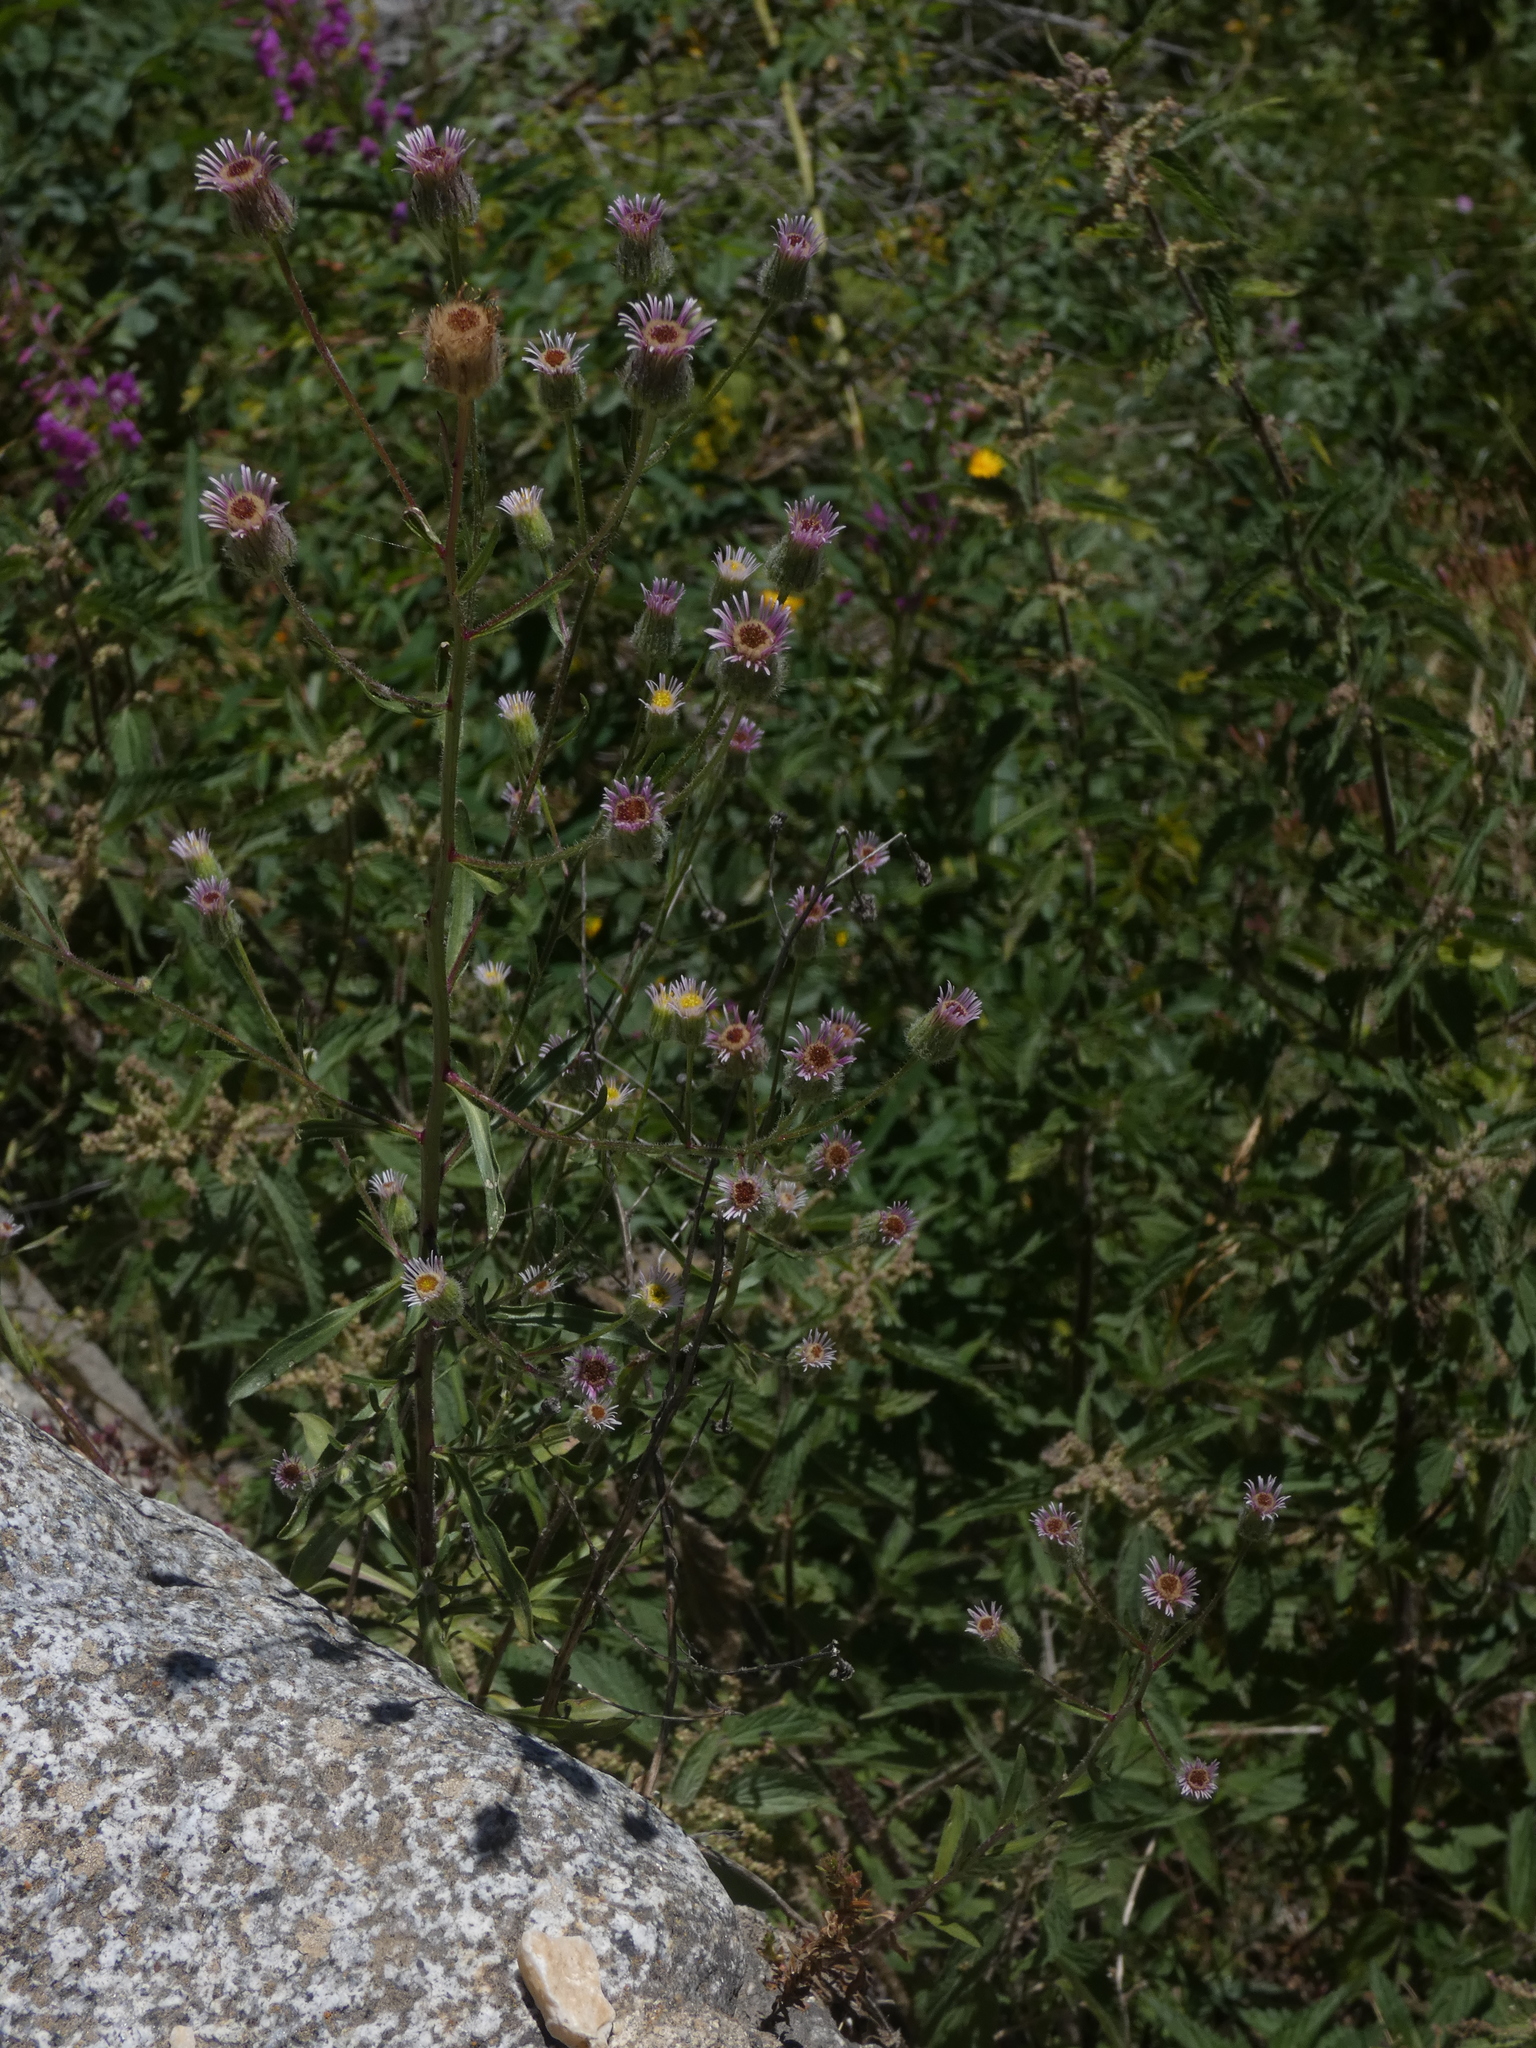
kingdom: Plantae
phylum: Tracheophyta
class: Magnoliopsida
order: Asterales
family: Asteraceae
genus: Erigeron
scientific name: Erigeron acris
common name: Blue fleabane
